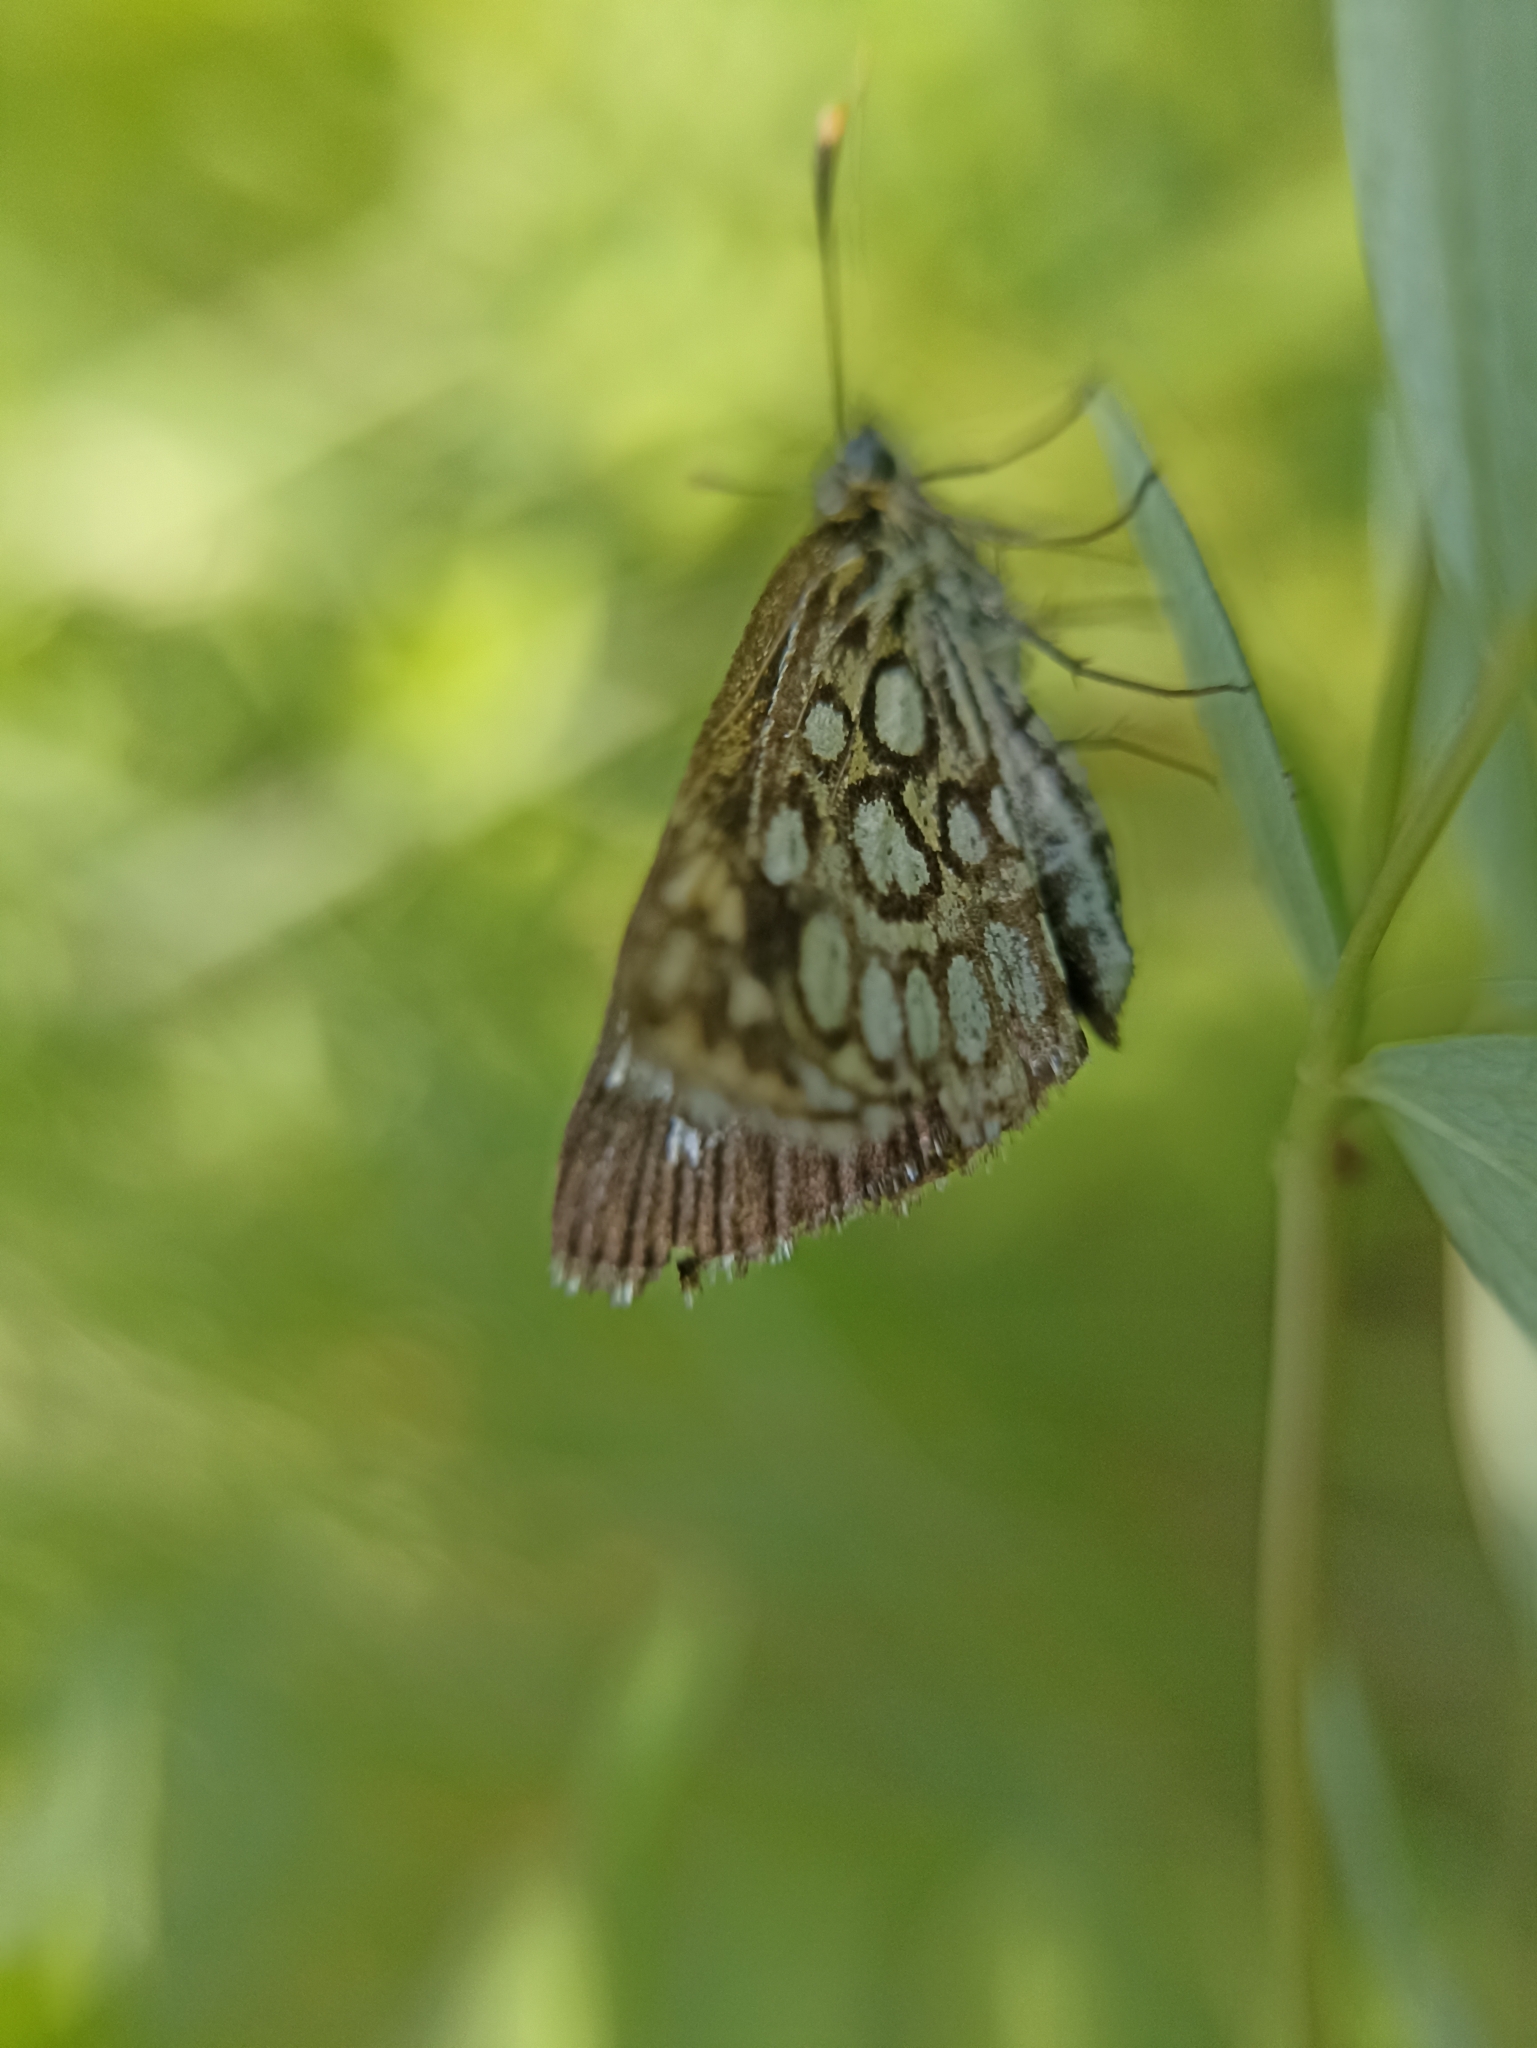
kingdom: Animalia
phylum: Arthropoda
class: Insecta
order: Lepidoptera
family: Hesperiidae
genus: Heteropterus
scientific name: Heteropterus morpheus
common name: Large chequered skipper
